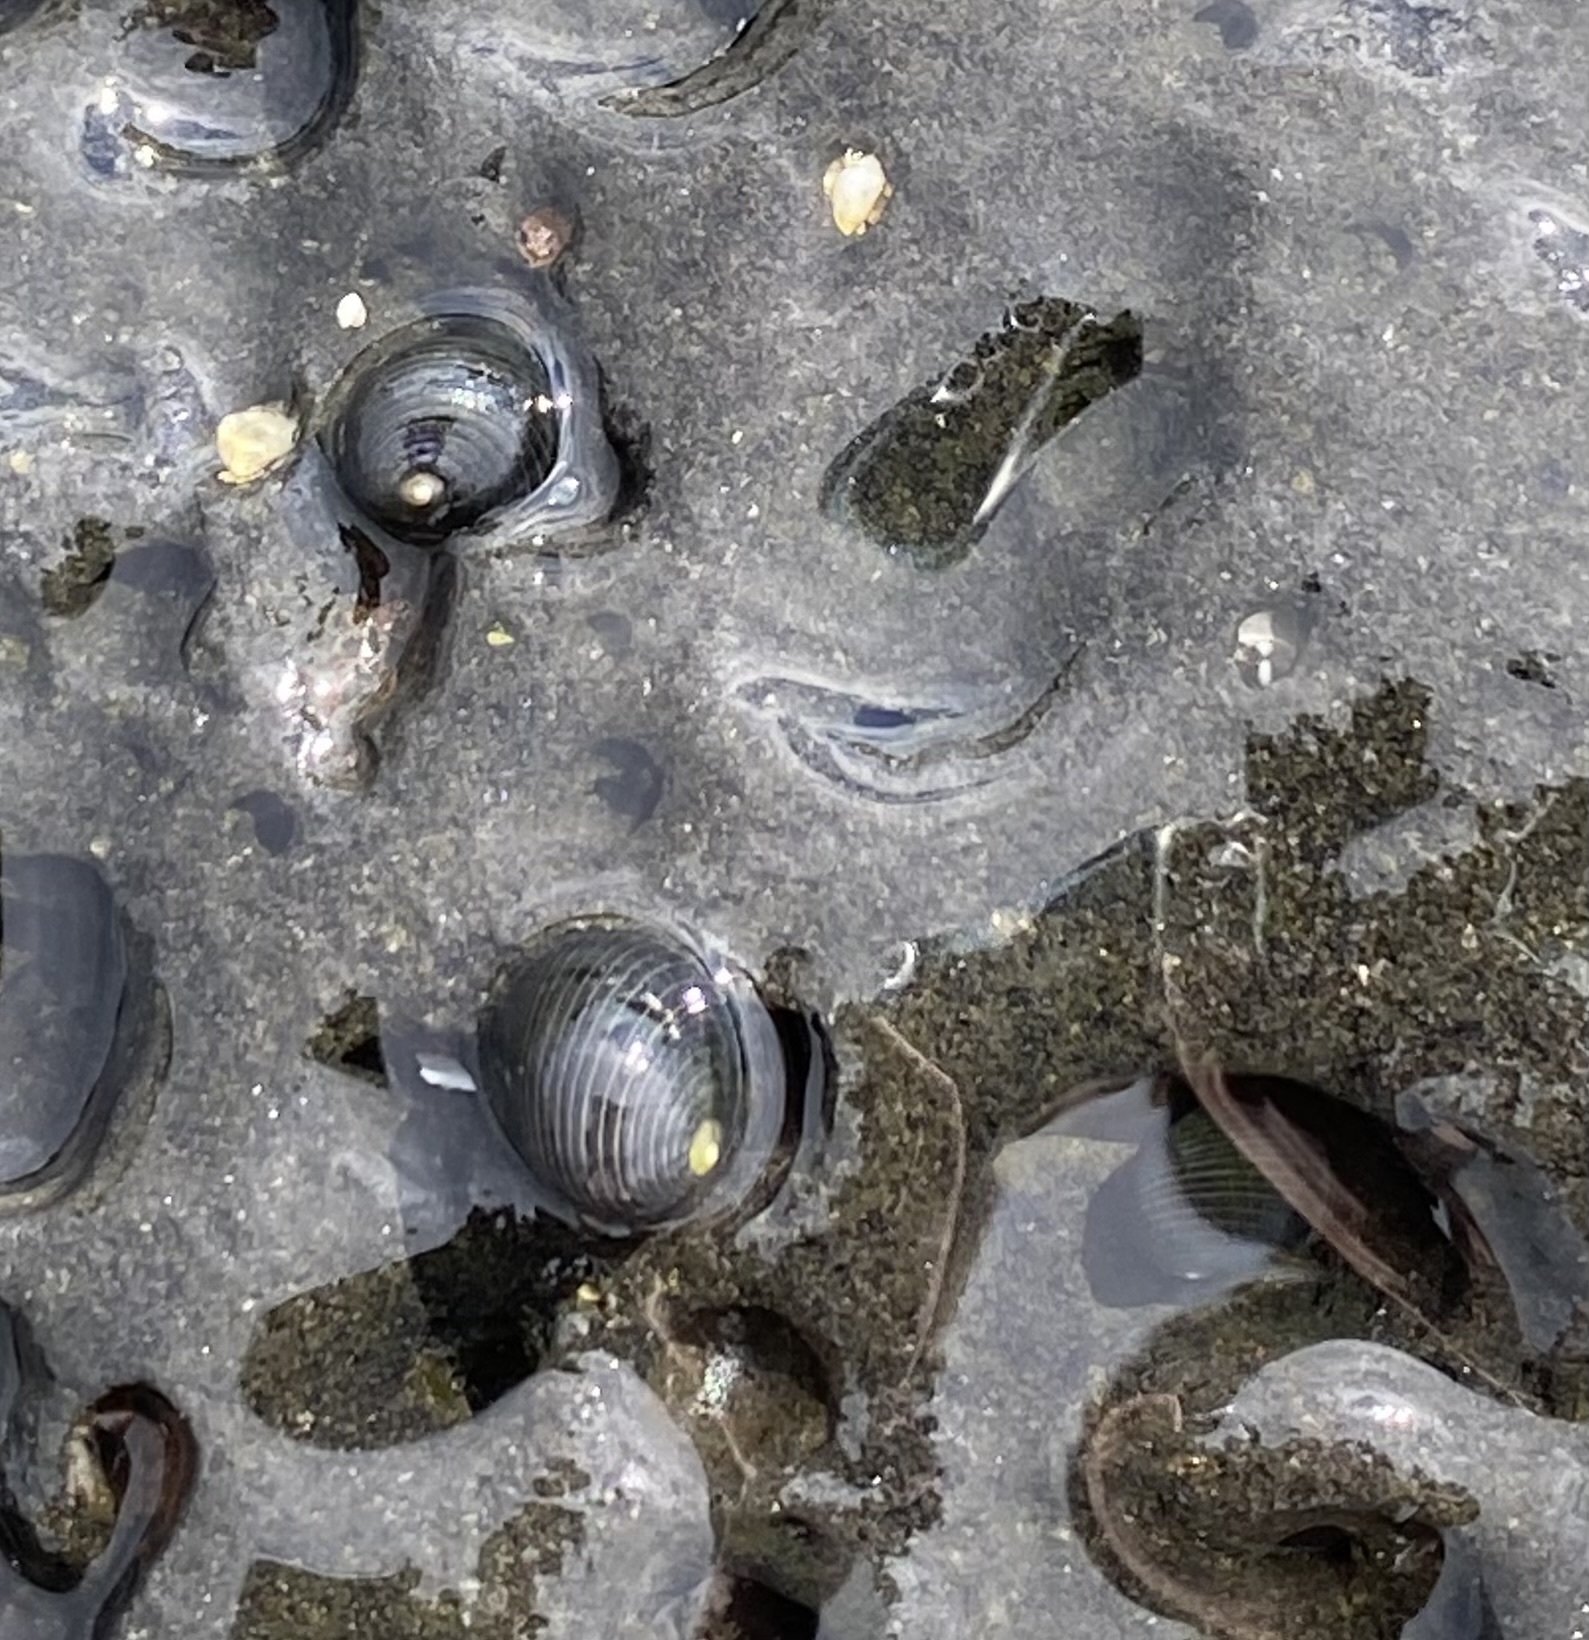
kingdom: Animalia
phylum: Mollusca
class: Gastropoda
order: Cycloneritida
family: Neritidae
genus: Nerita
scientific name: Nerita picea
